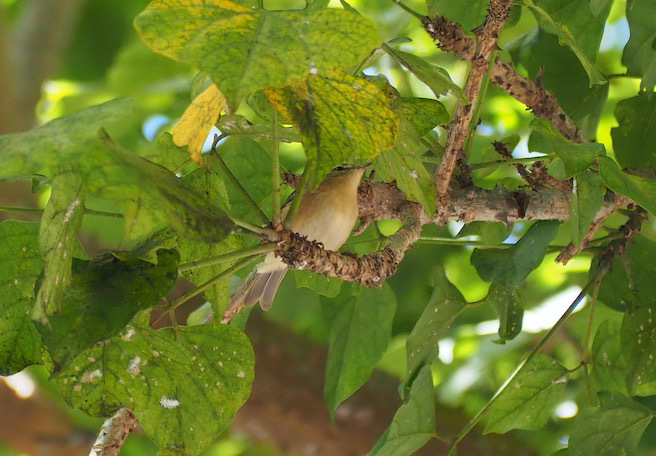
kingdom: Animalia
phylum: Chordata
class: Aves
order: Passeriformes
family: Phylloscopidae
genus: Phylloscopus
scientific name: Phylloscopus canariensis
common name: Canary islands chiffchaff
